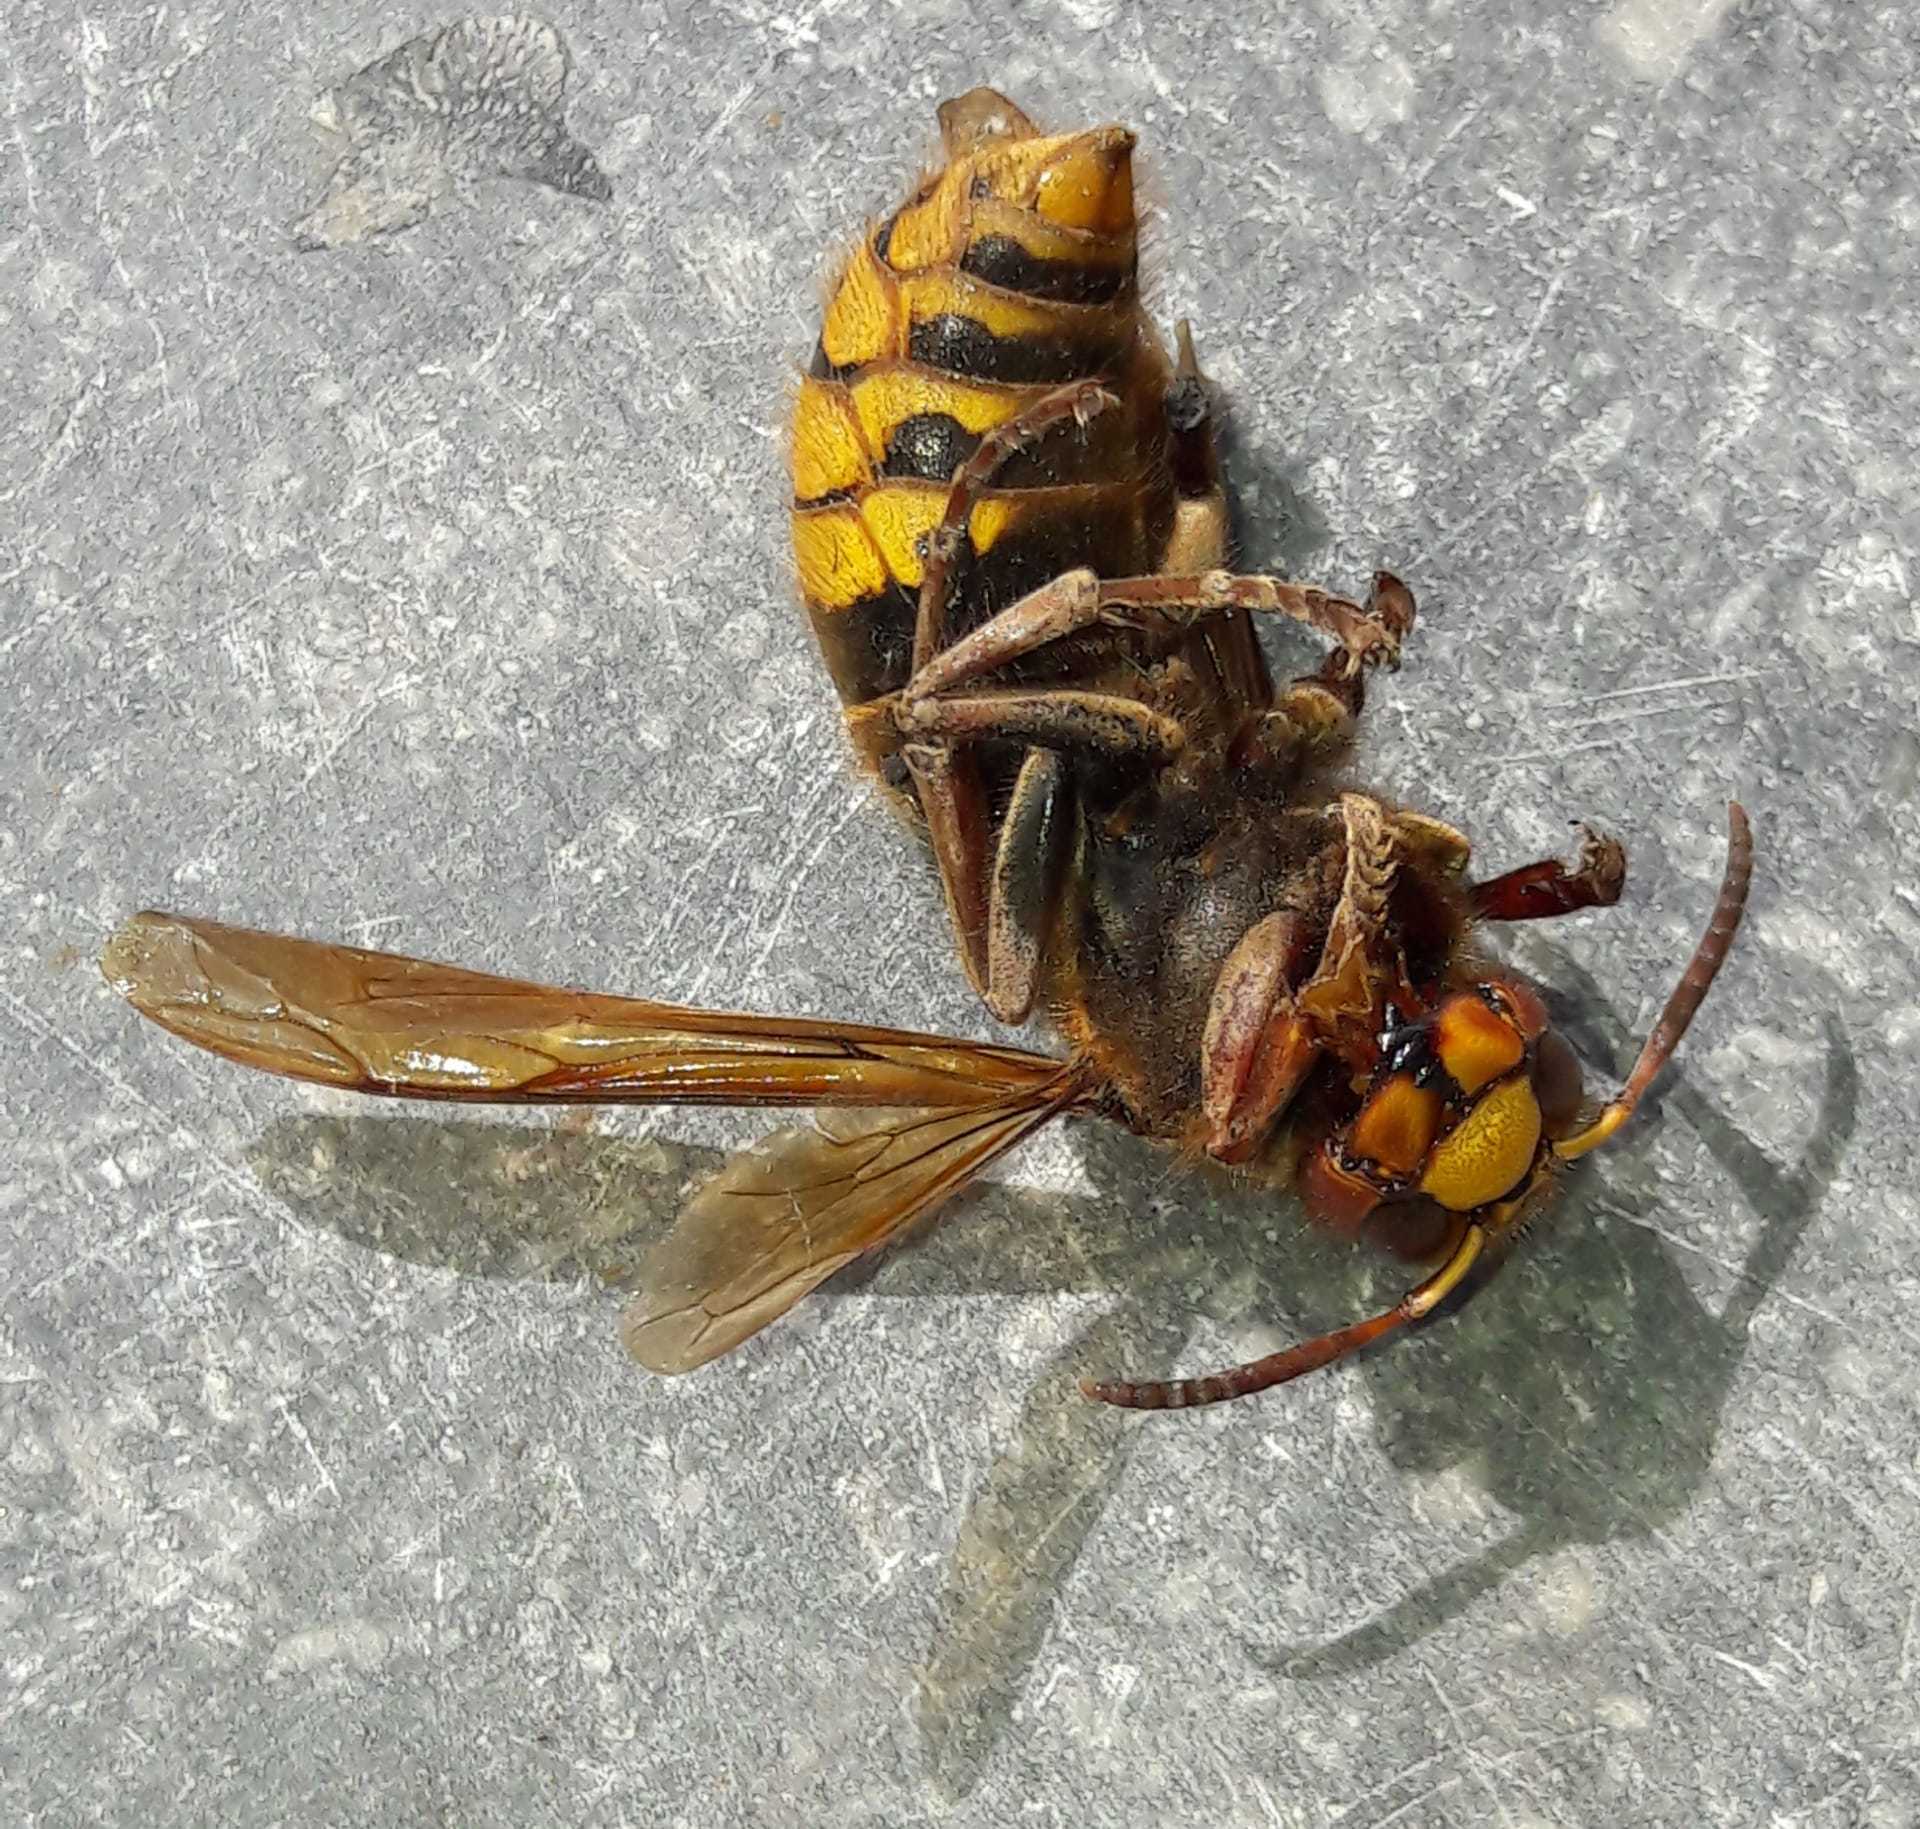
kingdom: Animalia
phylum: Arthropoda
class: Insecta
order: Hymenoptera
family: Vespidae
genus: Vespa
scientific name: Vespa crabro
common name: Hornet
